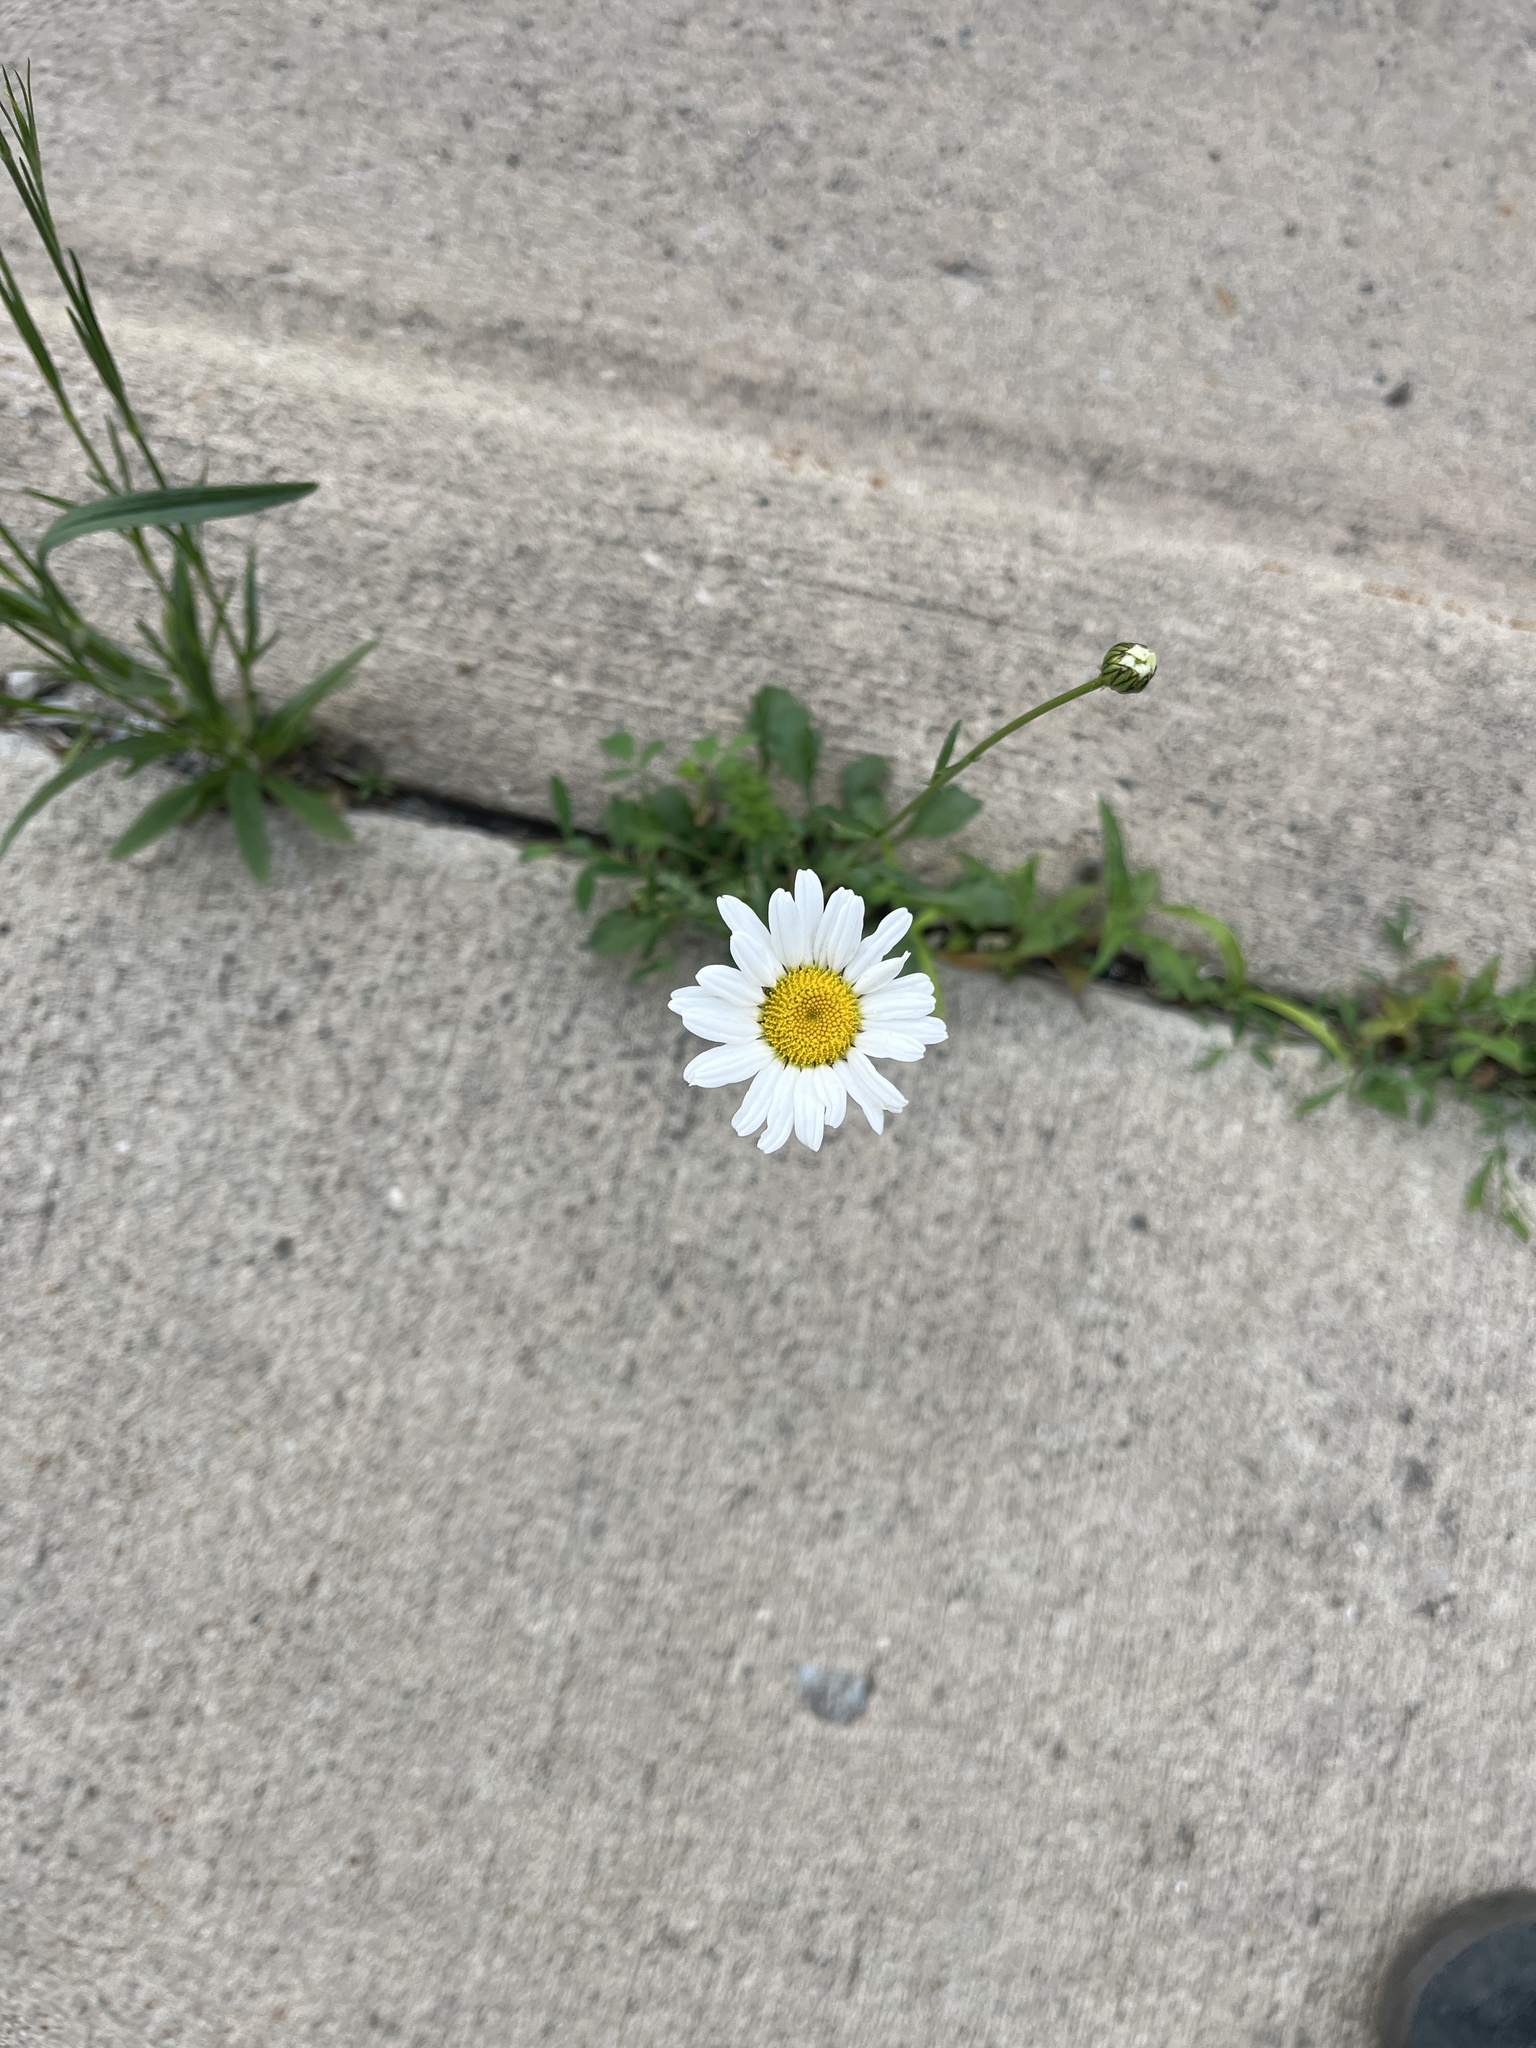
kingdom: Plantae
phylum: Tracheophyta
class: Magnoliopsida
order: Asterales
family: Asteraceae
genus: Leucanthemum
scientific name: Leucanthemum vulgare
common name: Oxeye daisy
